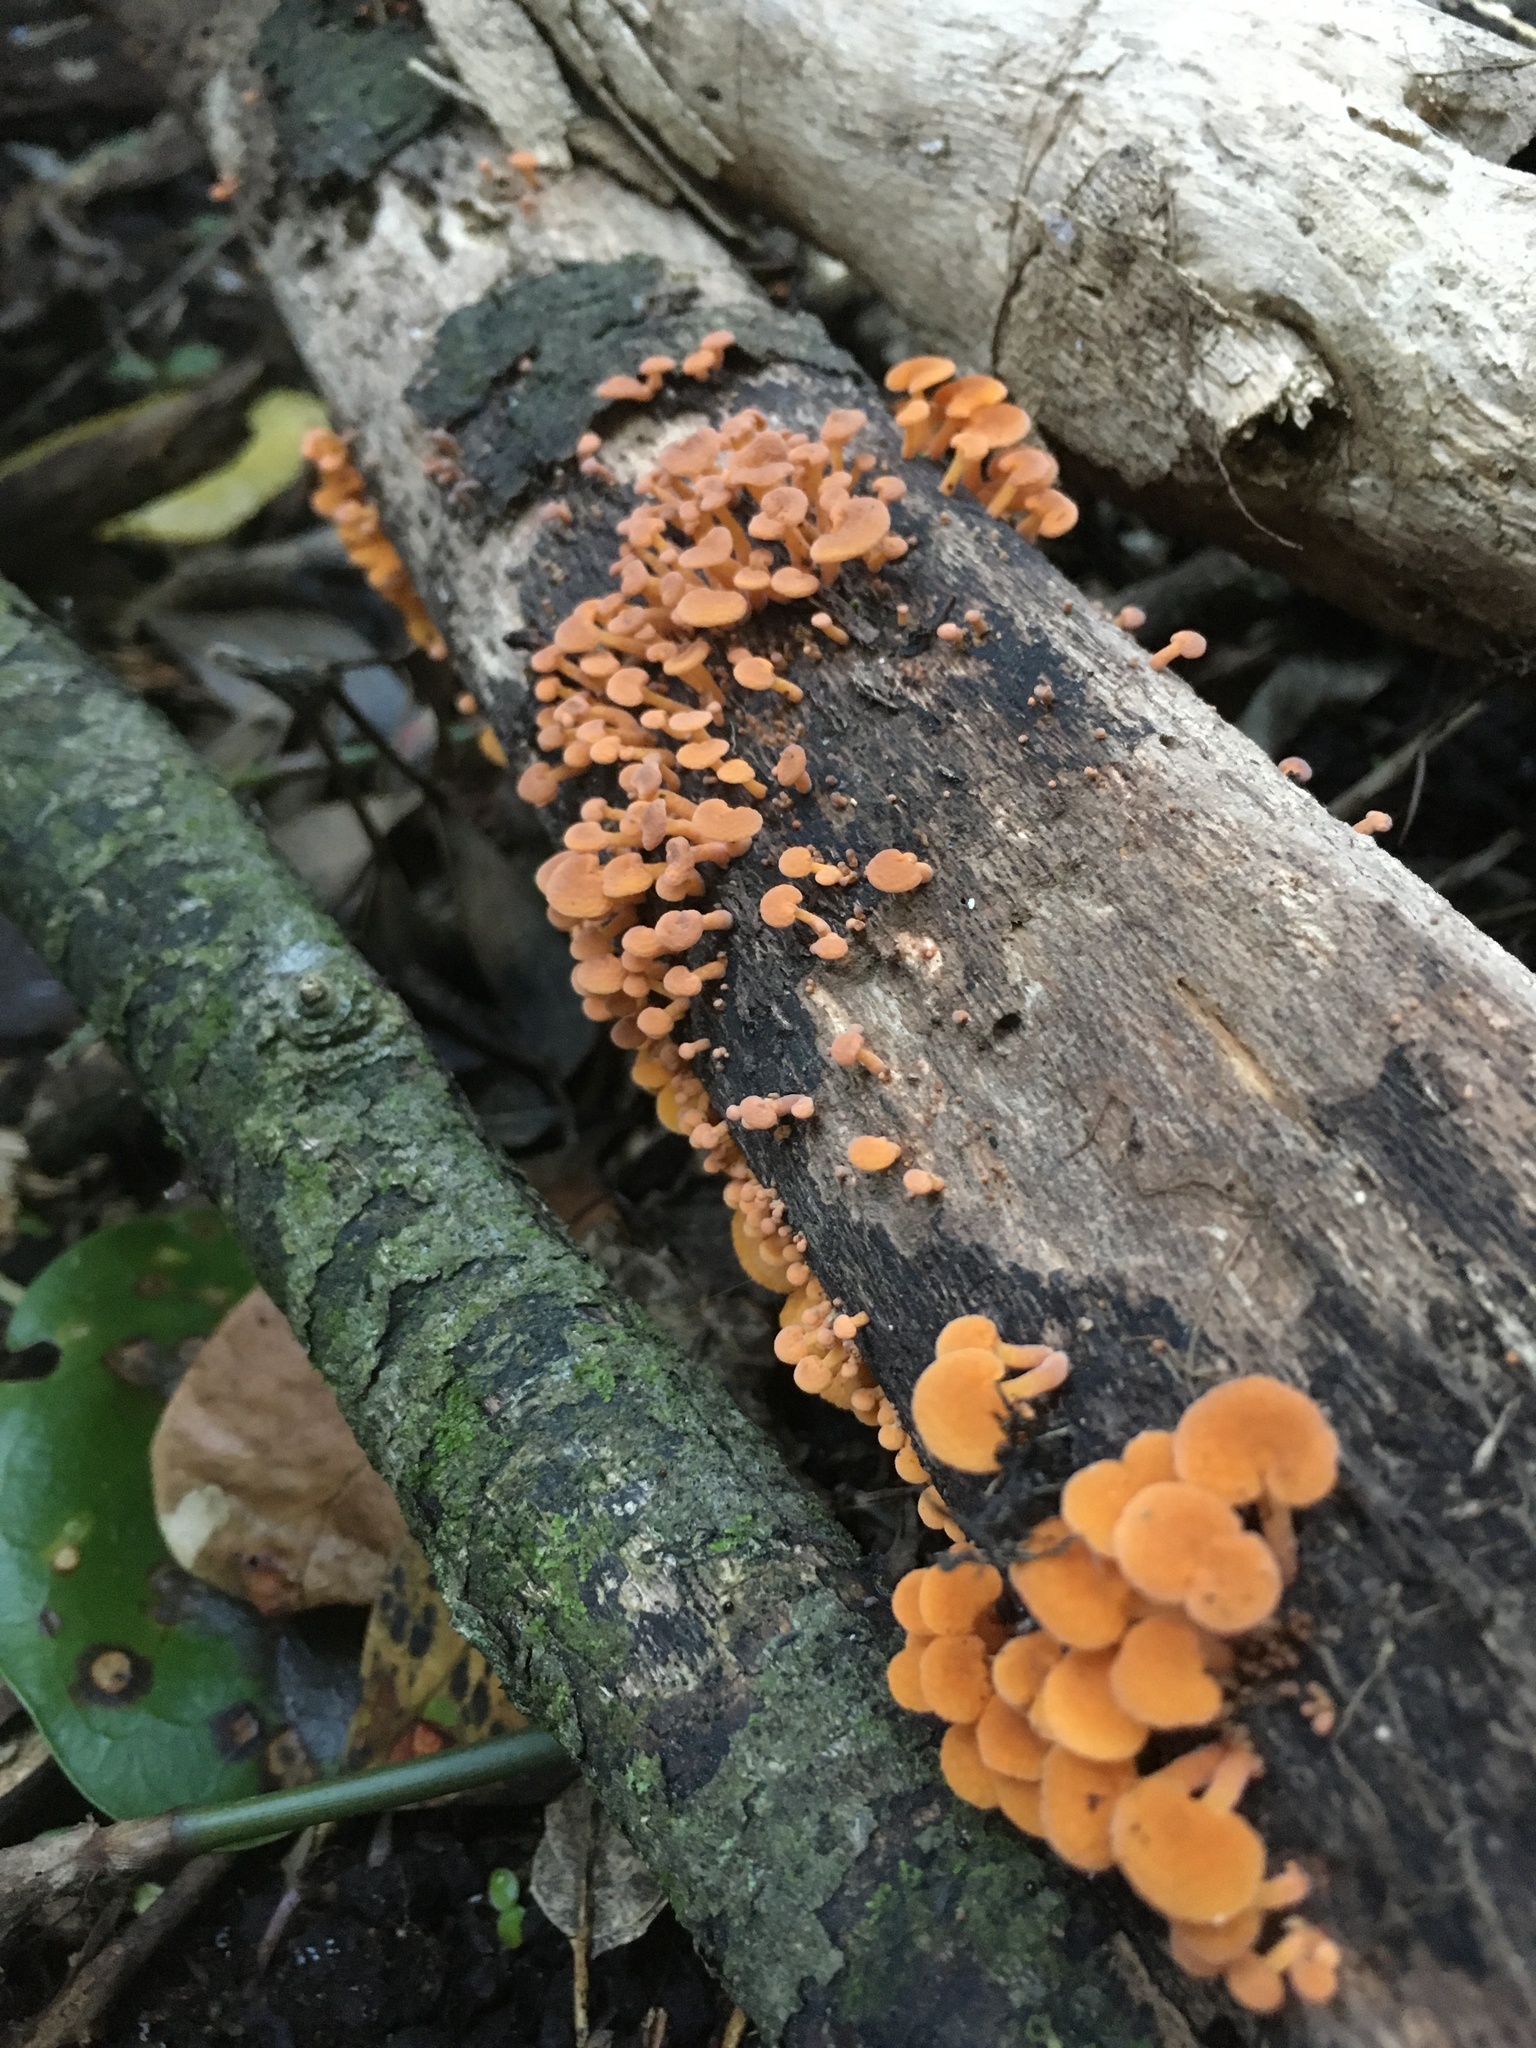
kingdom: Fungi
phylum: Basidiomycota
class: Agaricomycetes
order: Agaricales
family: Mycenaceae
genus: Favolaschia
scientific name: Favolaschia claudopus
